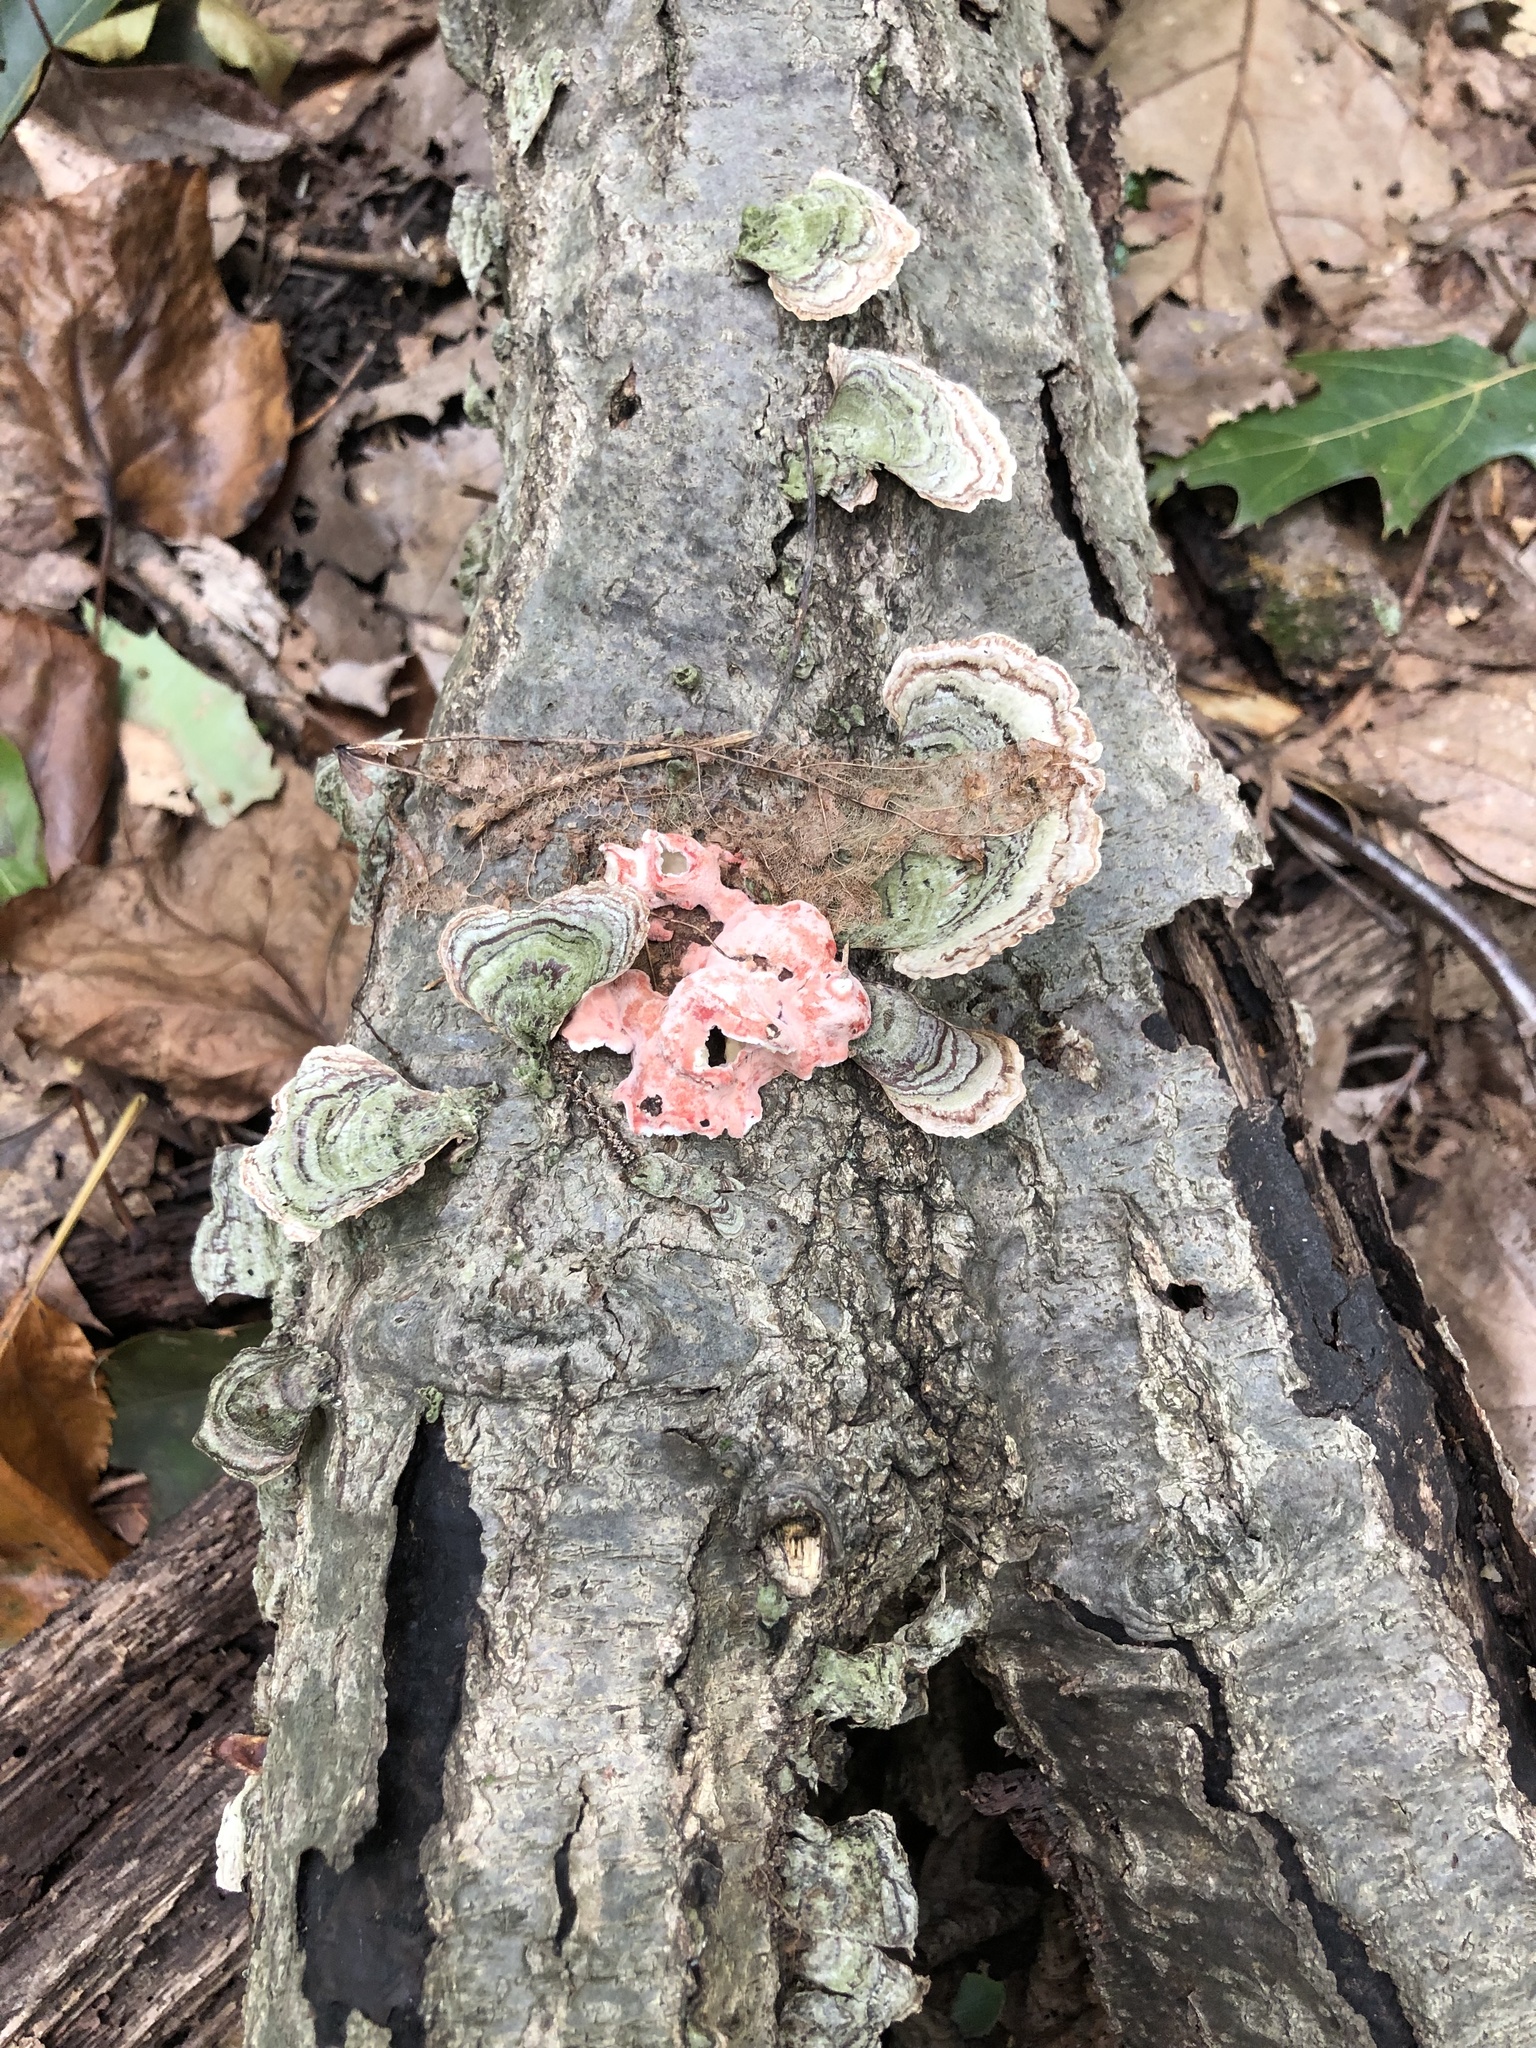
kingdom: Fungi
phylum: Basidiomycota
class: Agaricomycetes
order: Polyporales
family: Irpicaceae
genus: Byssomerulius
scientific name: Byssomerulius incarnatus
